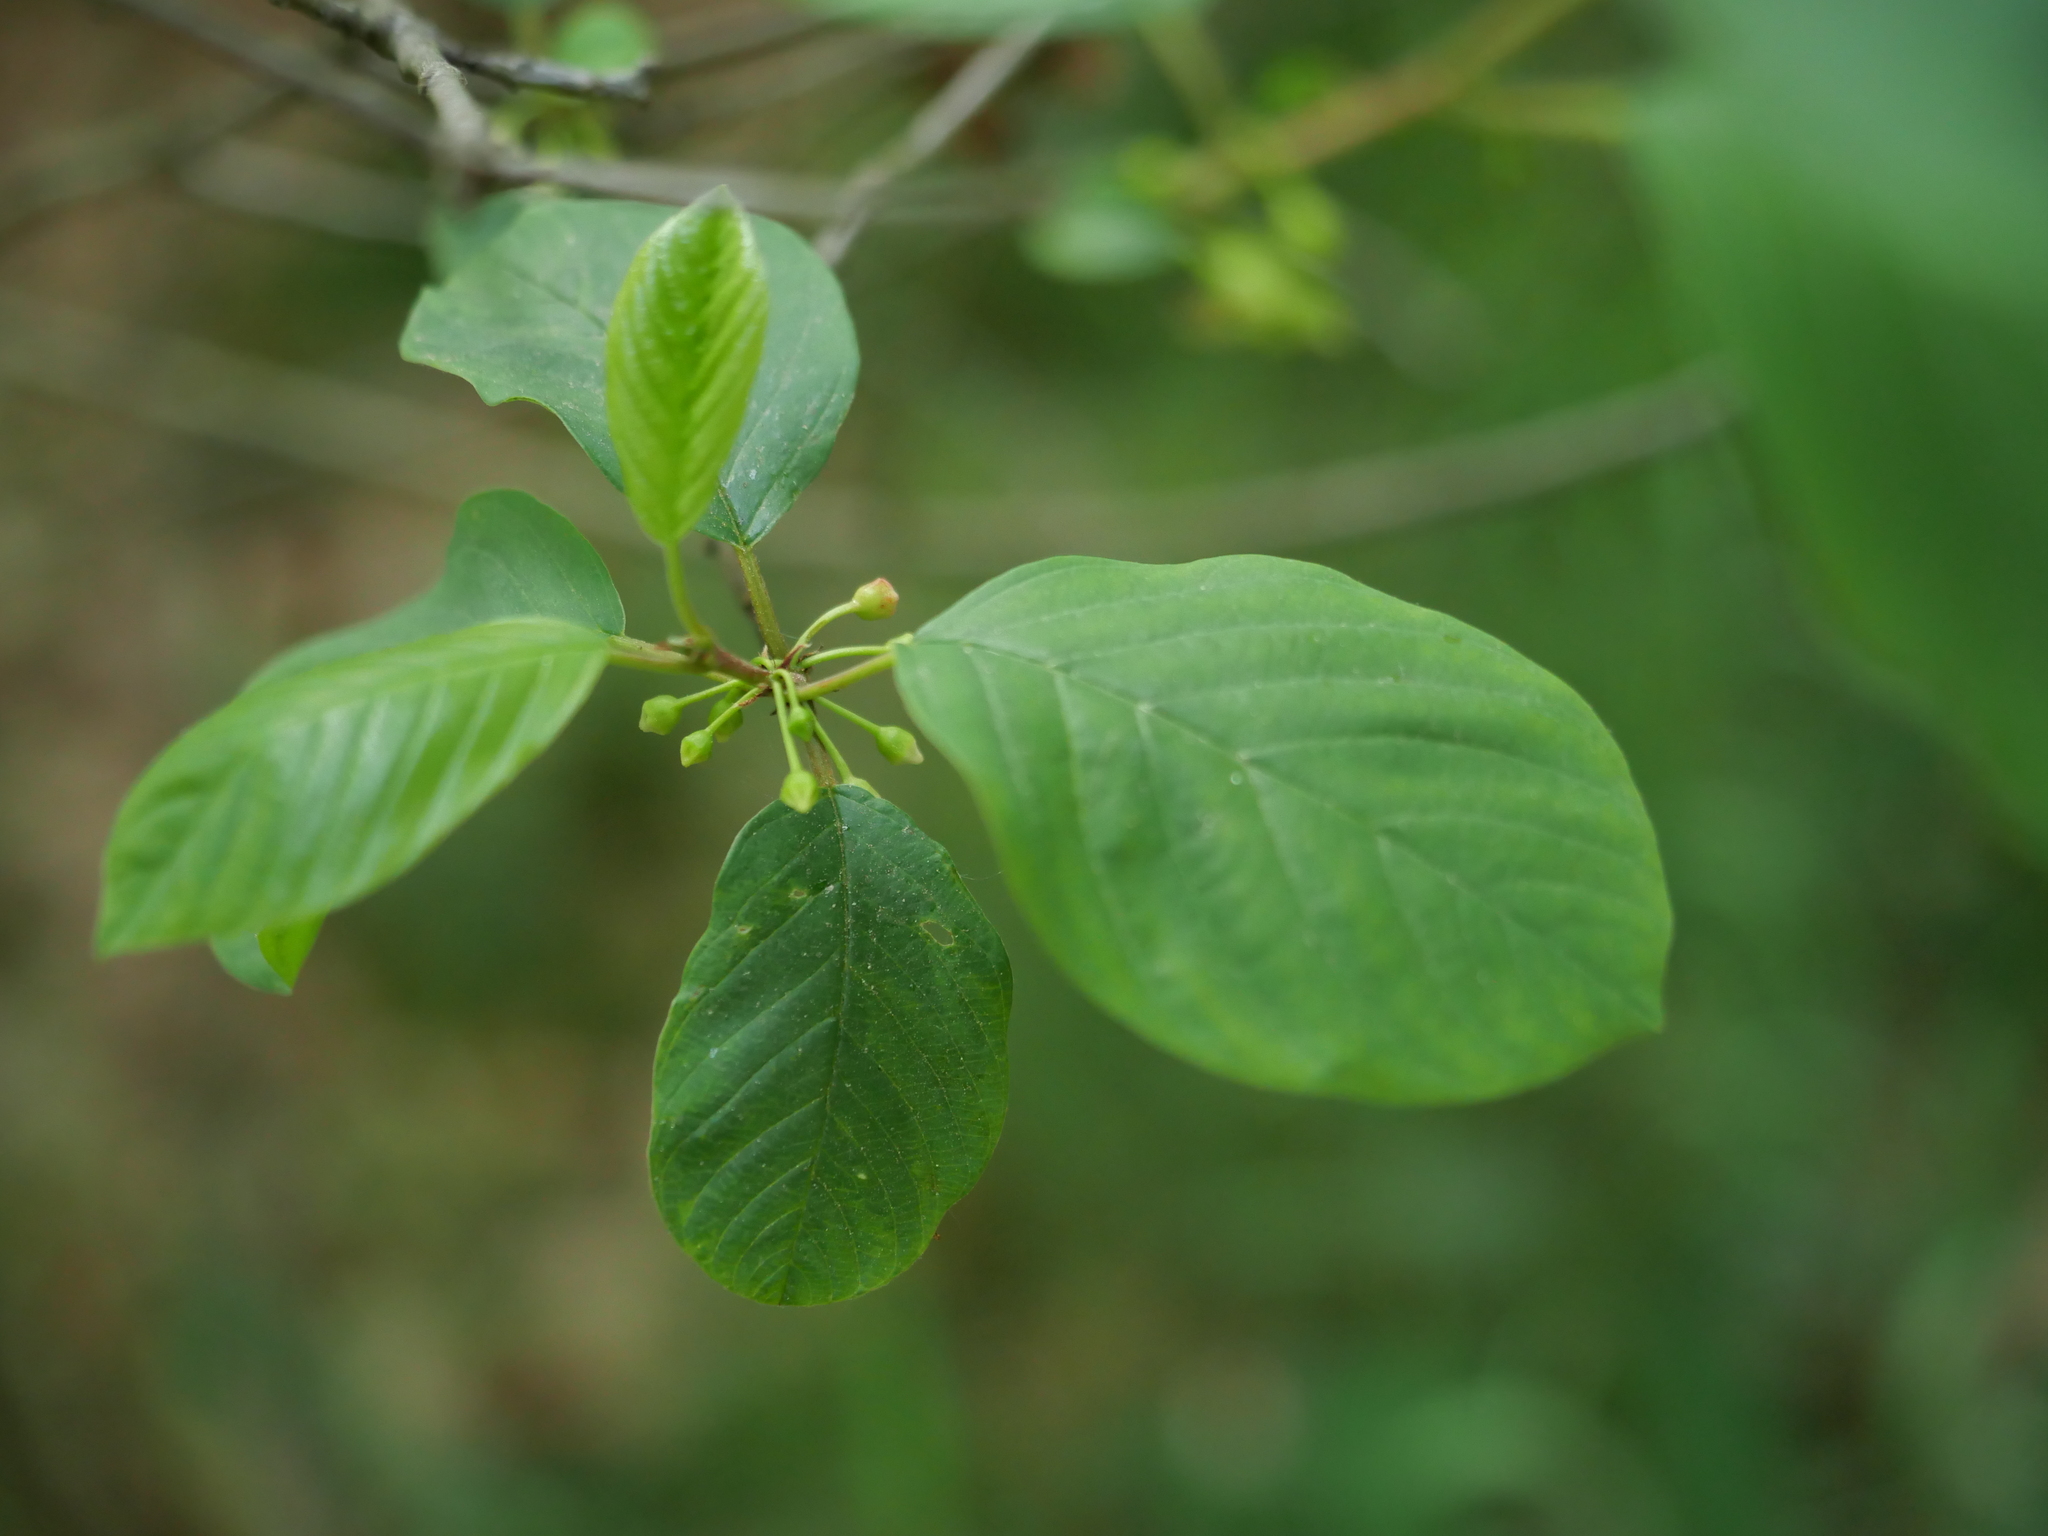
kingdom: Plantae
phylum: Tracheophyta
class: Magnoliopsida
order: Rosales
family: Rhamnaceae
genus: Frangula
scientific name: Frangula alnus
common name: Alder buckthorn
